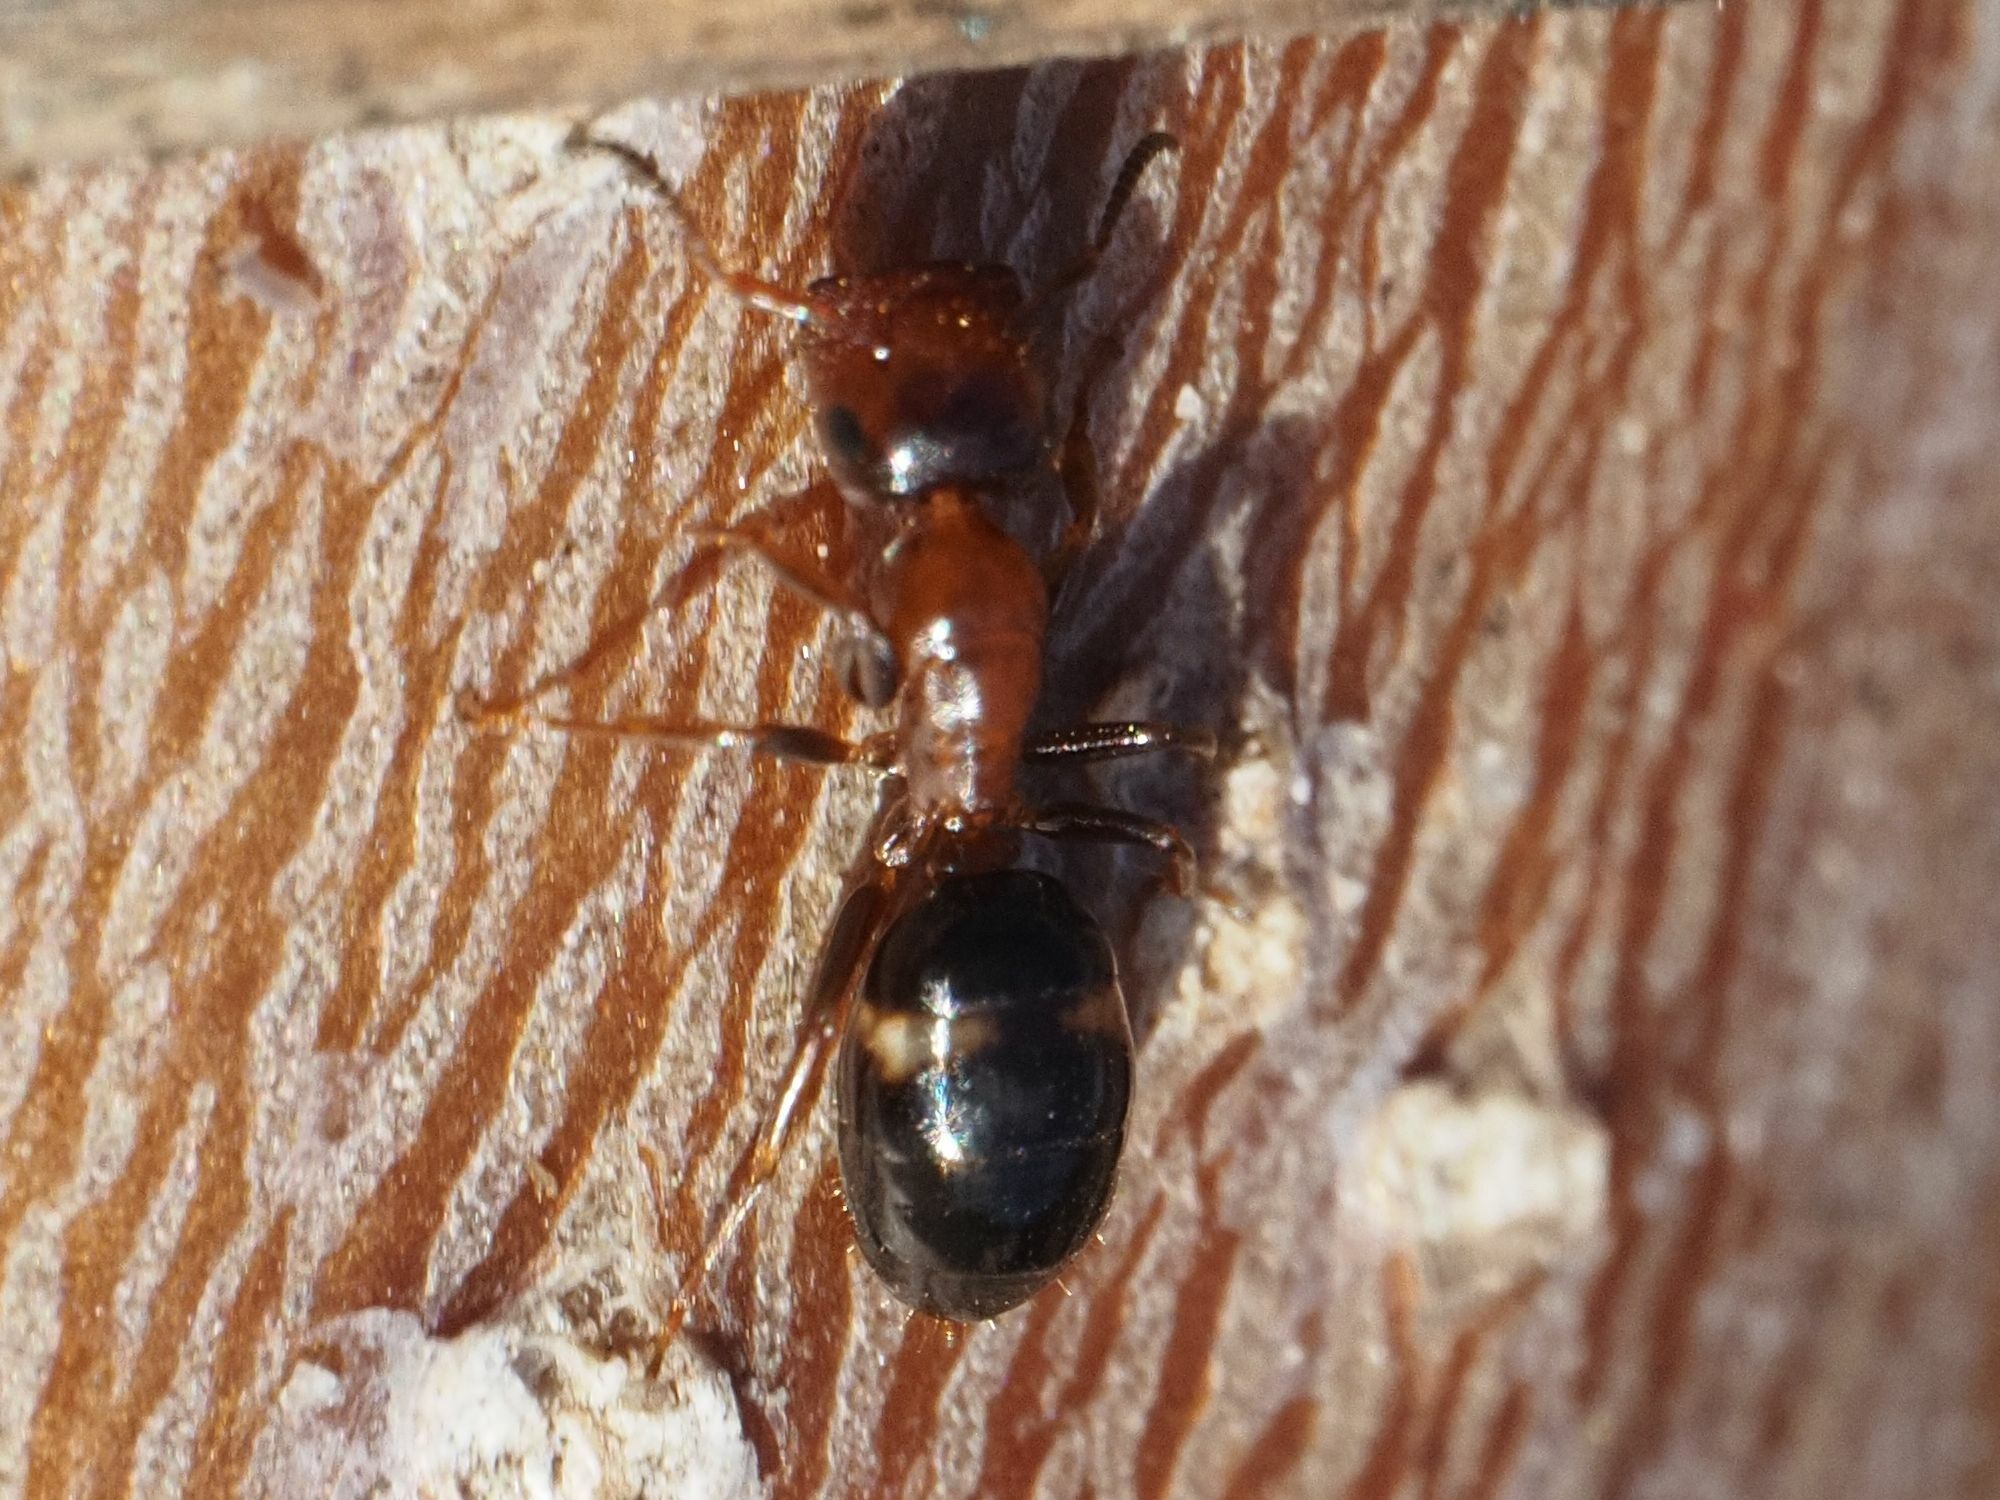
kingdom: Animalia
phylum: Arthropoda
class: Insecta
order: Hymenoptera
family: Formicidae
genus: Camponotus
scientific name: Camponotus truncatus
